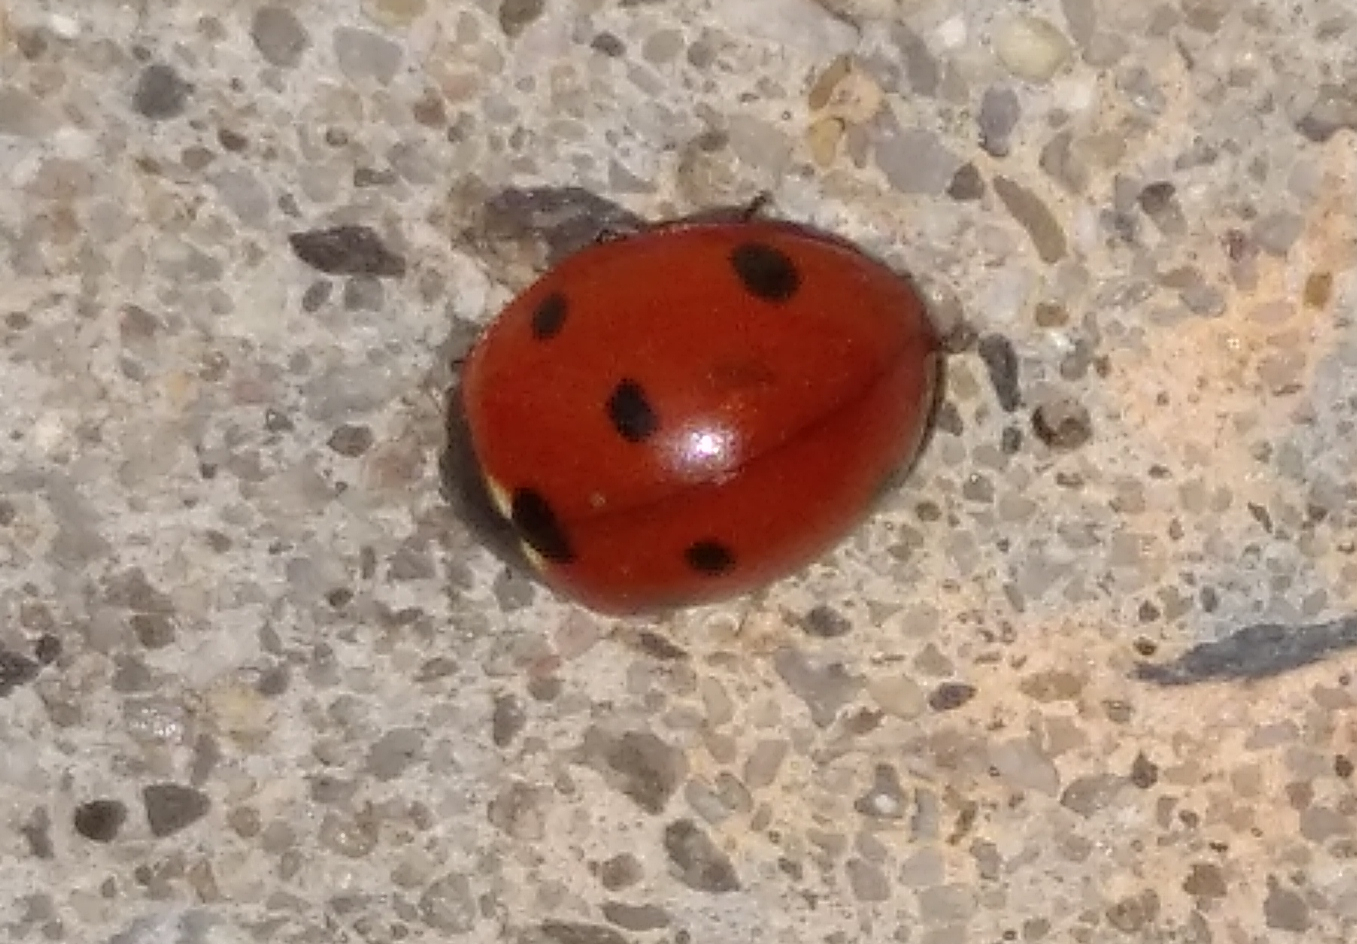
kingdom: Animalia
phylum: Arthropoda
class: Insecta
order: Coleoptera
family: Coccinellidae
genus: Coccinella
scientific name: Coccinella septempunctata
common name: Sevenspotted lady beetle
